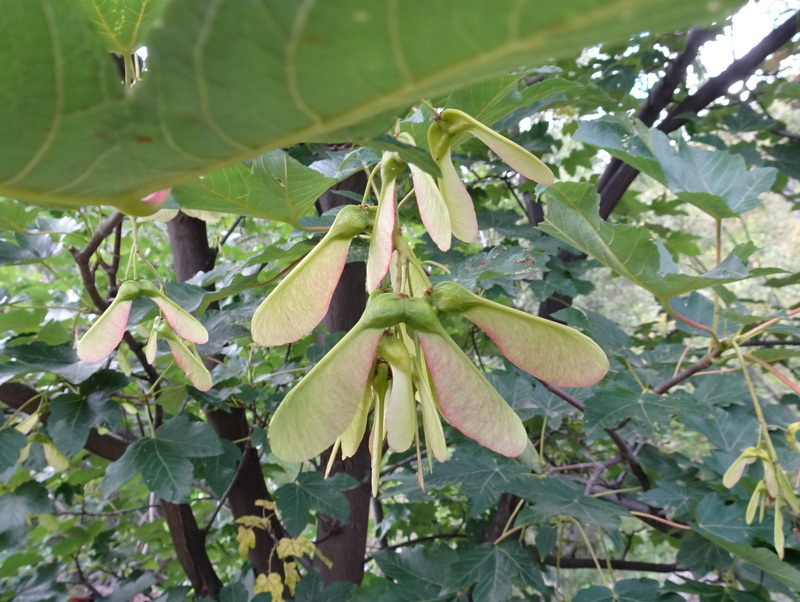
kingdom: Plantae
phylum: Tracheophyta
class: Magnoliopsida
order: Sapindales
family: Sapindaceae
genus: Acer
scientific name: Acer pseudoplatanus
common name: Sycamore
